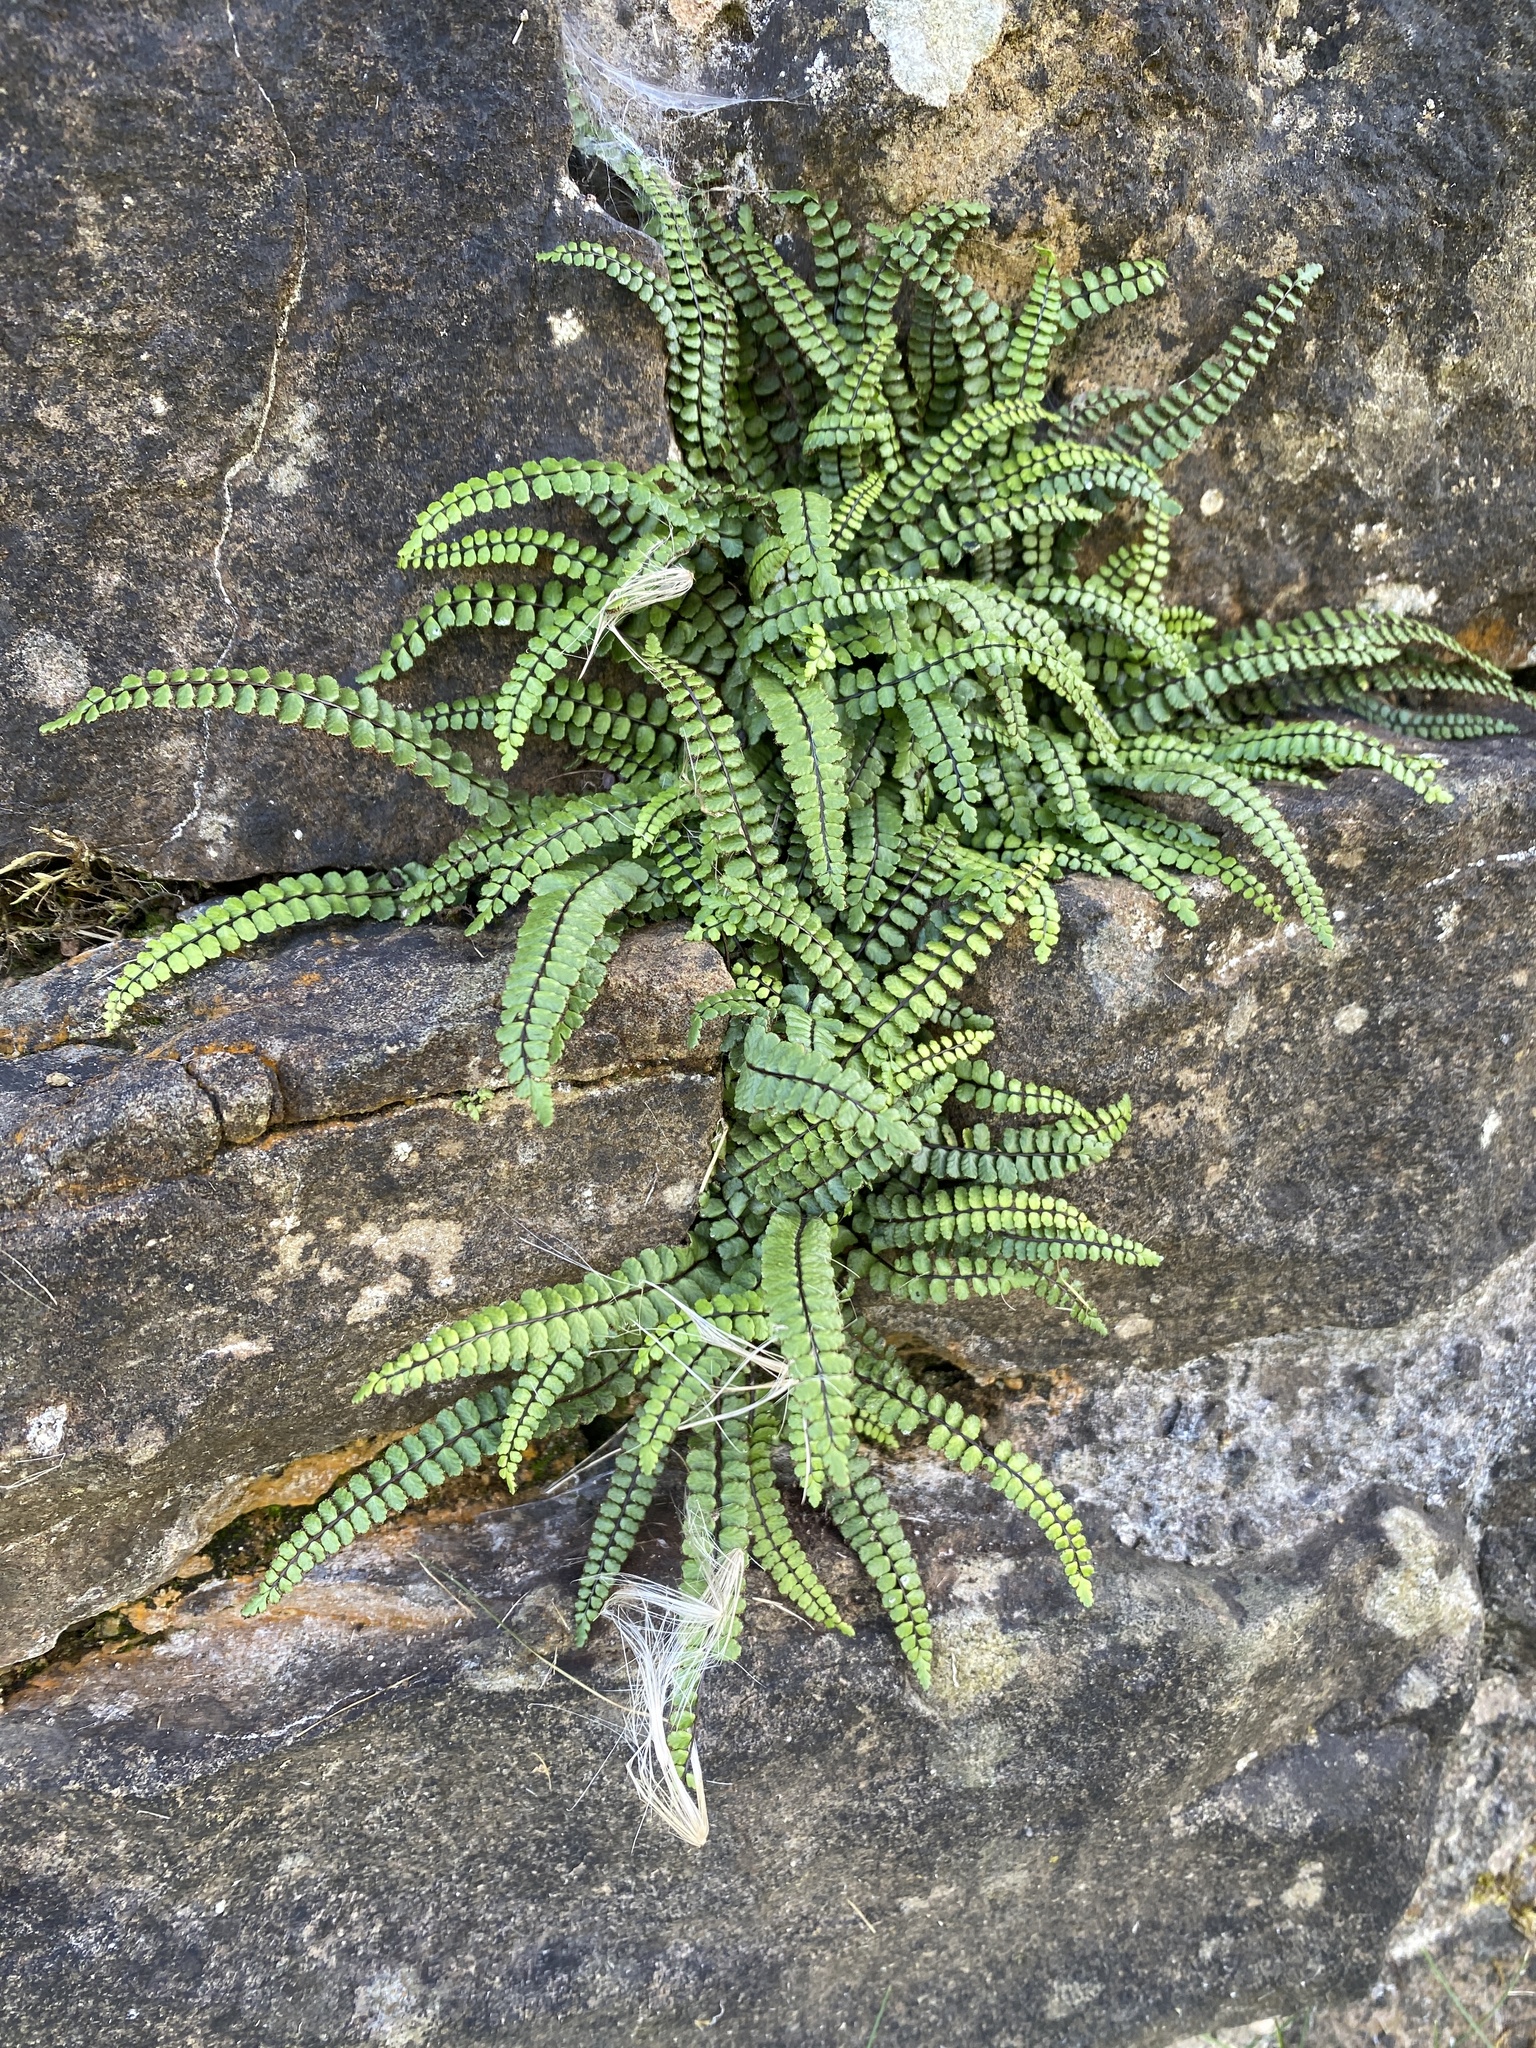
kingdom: Plantae
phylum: Tracheophyta
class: Polypodiopsida
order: Polypodiales
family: Aspleniaceae
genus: Asplenium
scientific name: Asplenium trichomanes
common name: Maidenhair spleenwort
